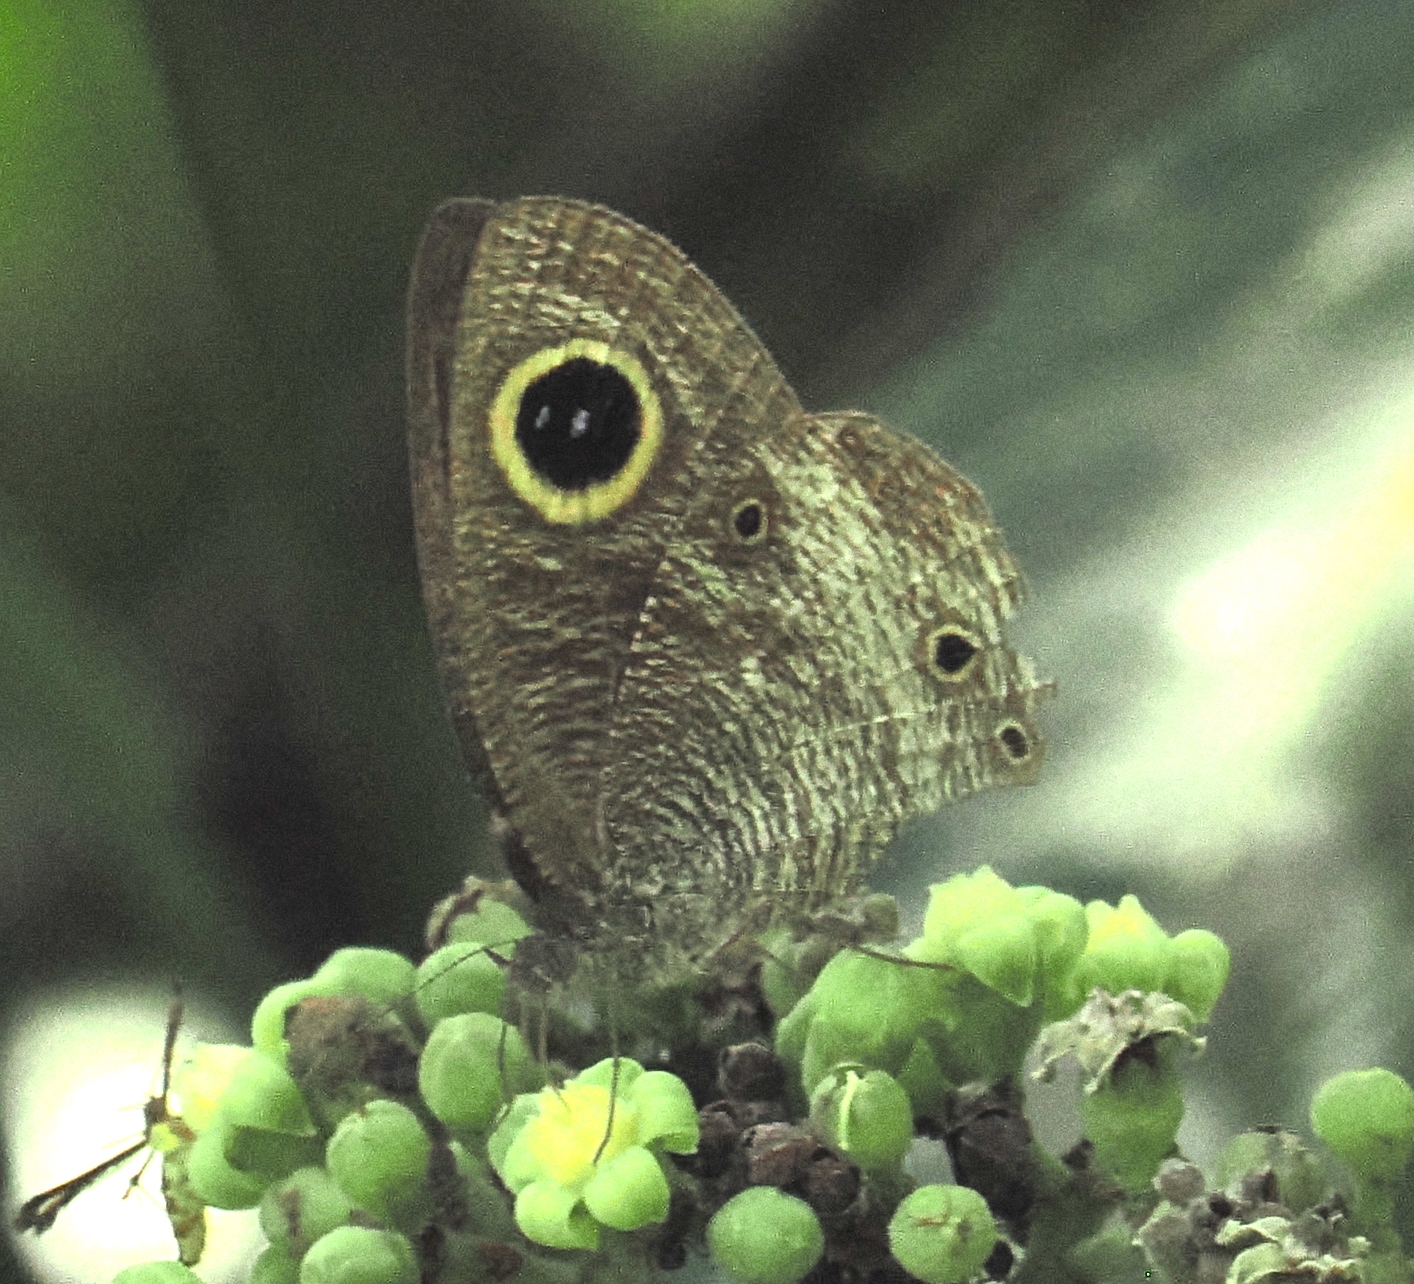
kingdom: Animalia
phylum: Arthropoda
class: Insecta
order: Lepidoptera
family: Nymphalidae
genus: Ypthima
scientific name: Ypthima pandocus
